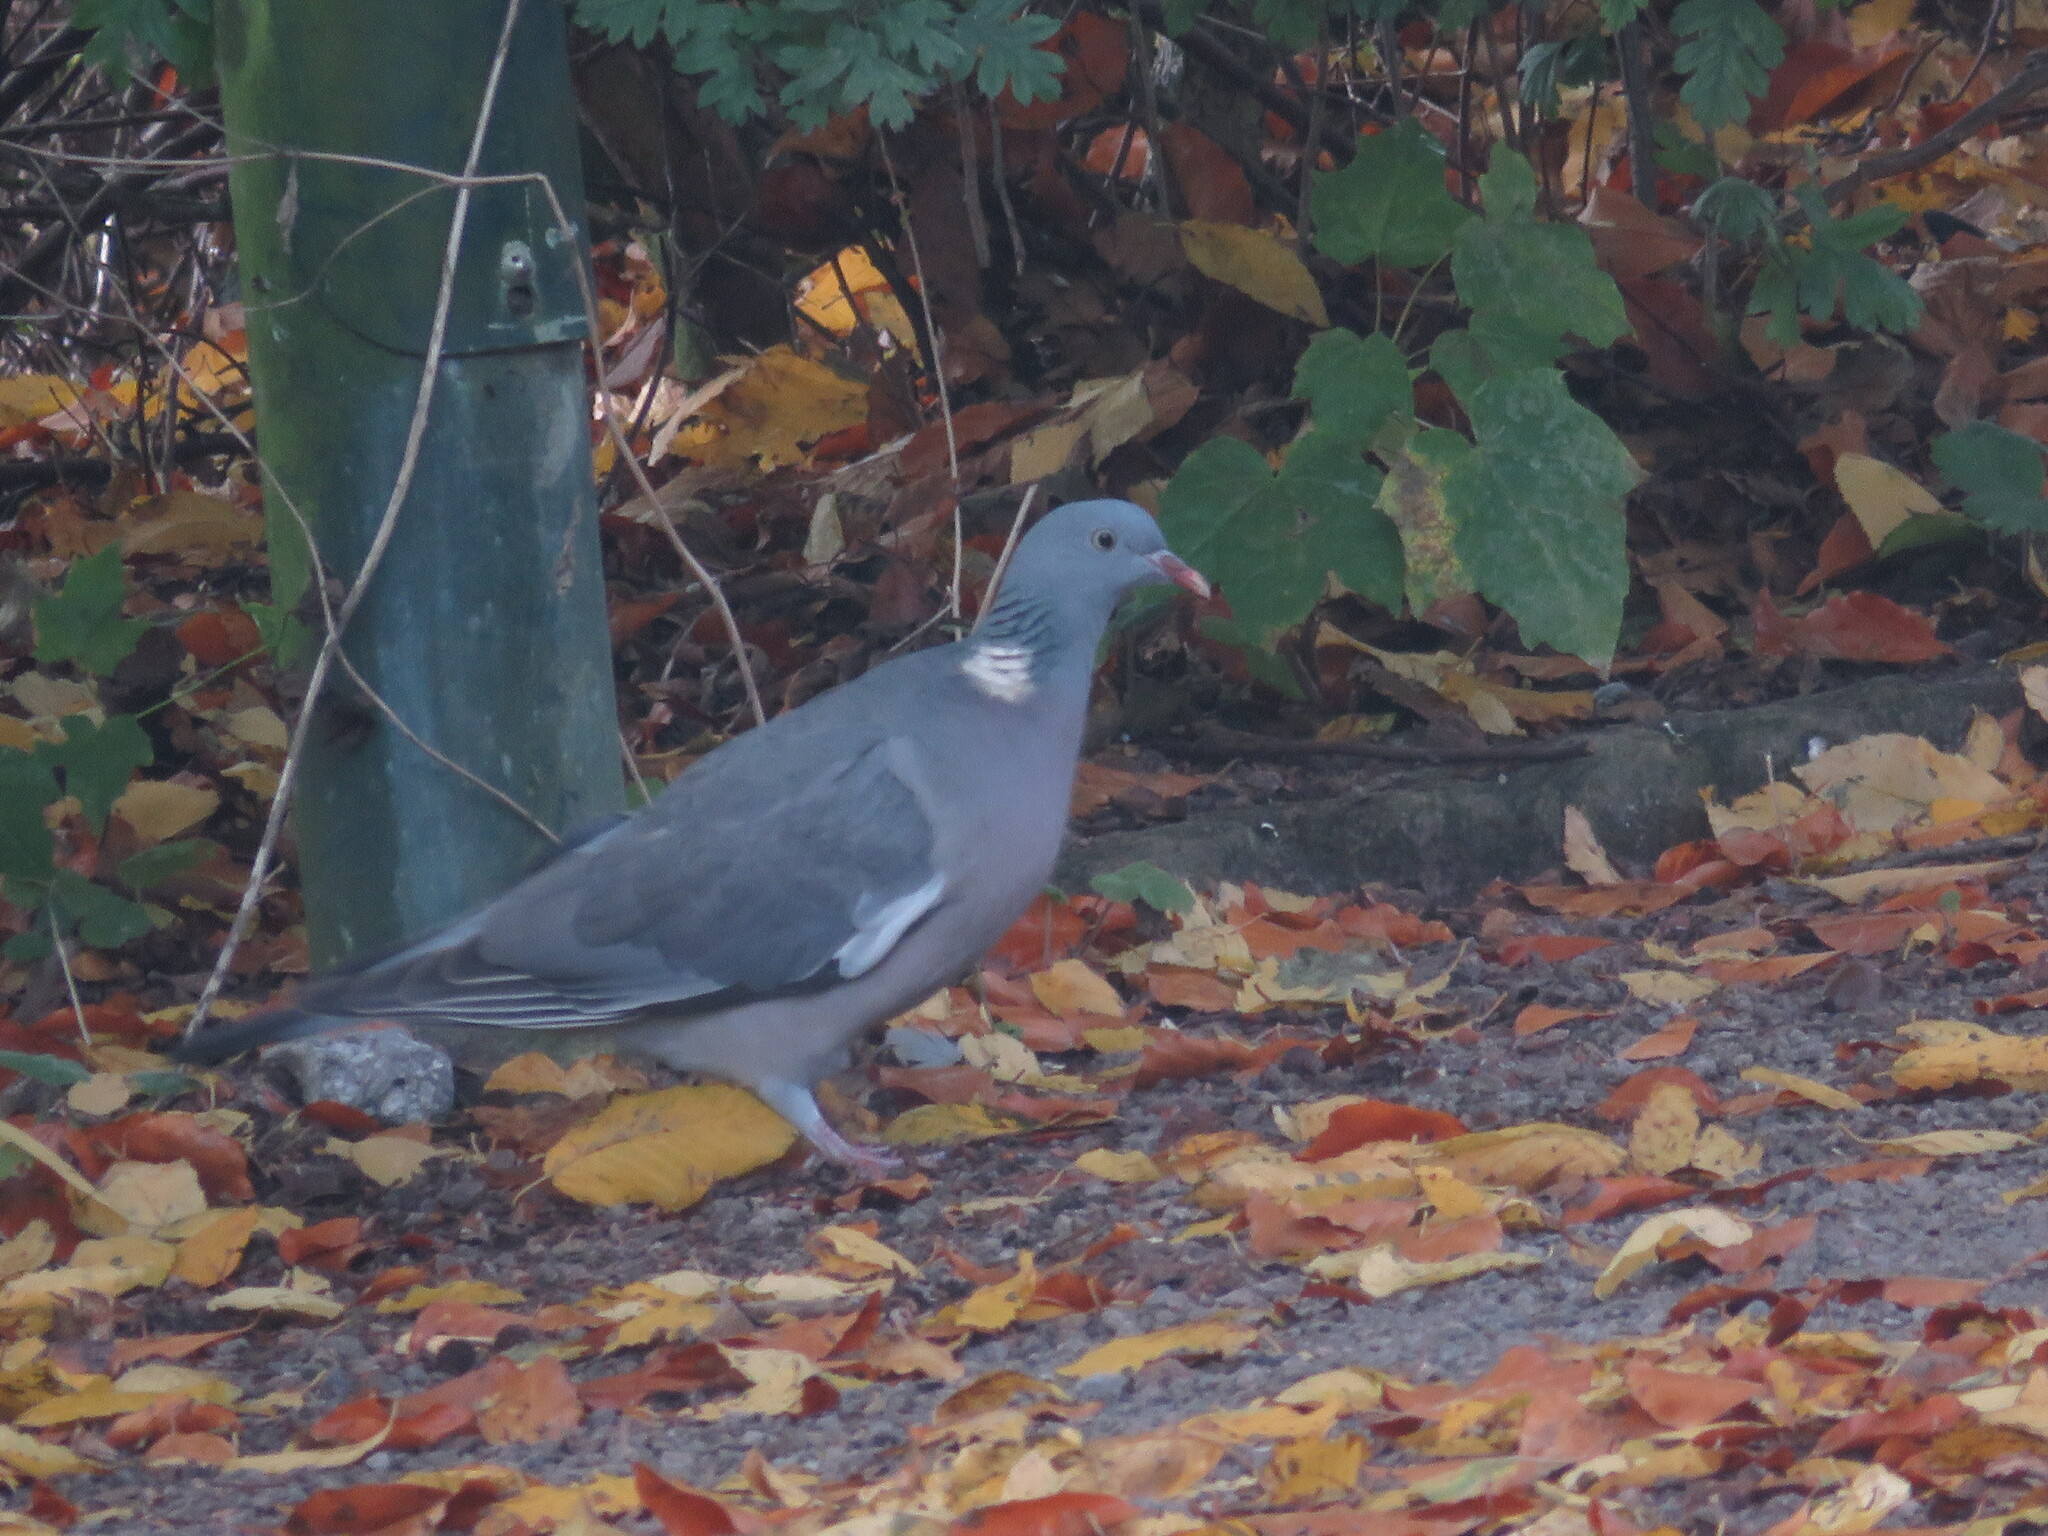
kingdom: Animalia
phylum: Chordata
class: Aves
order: Columbiformes
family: Columbidae
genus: Columba
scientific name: Columba palumbus
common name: Common wood pigeon
